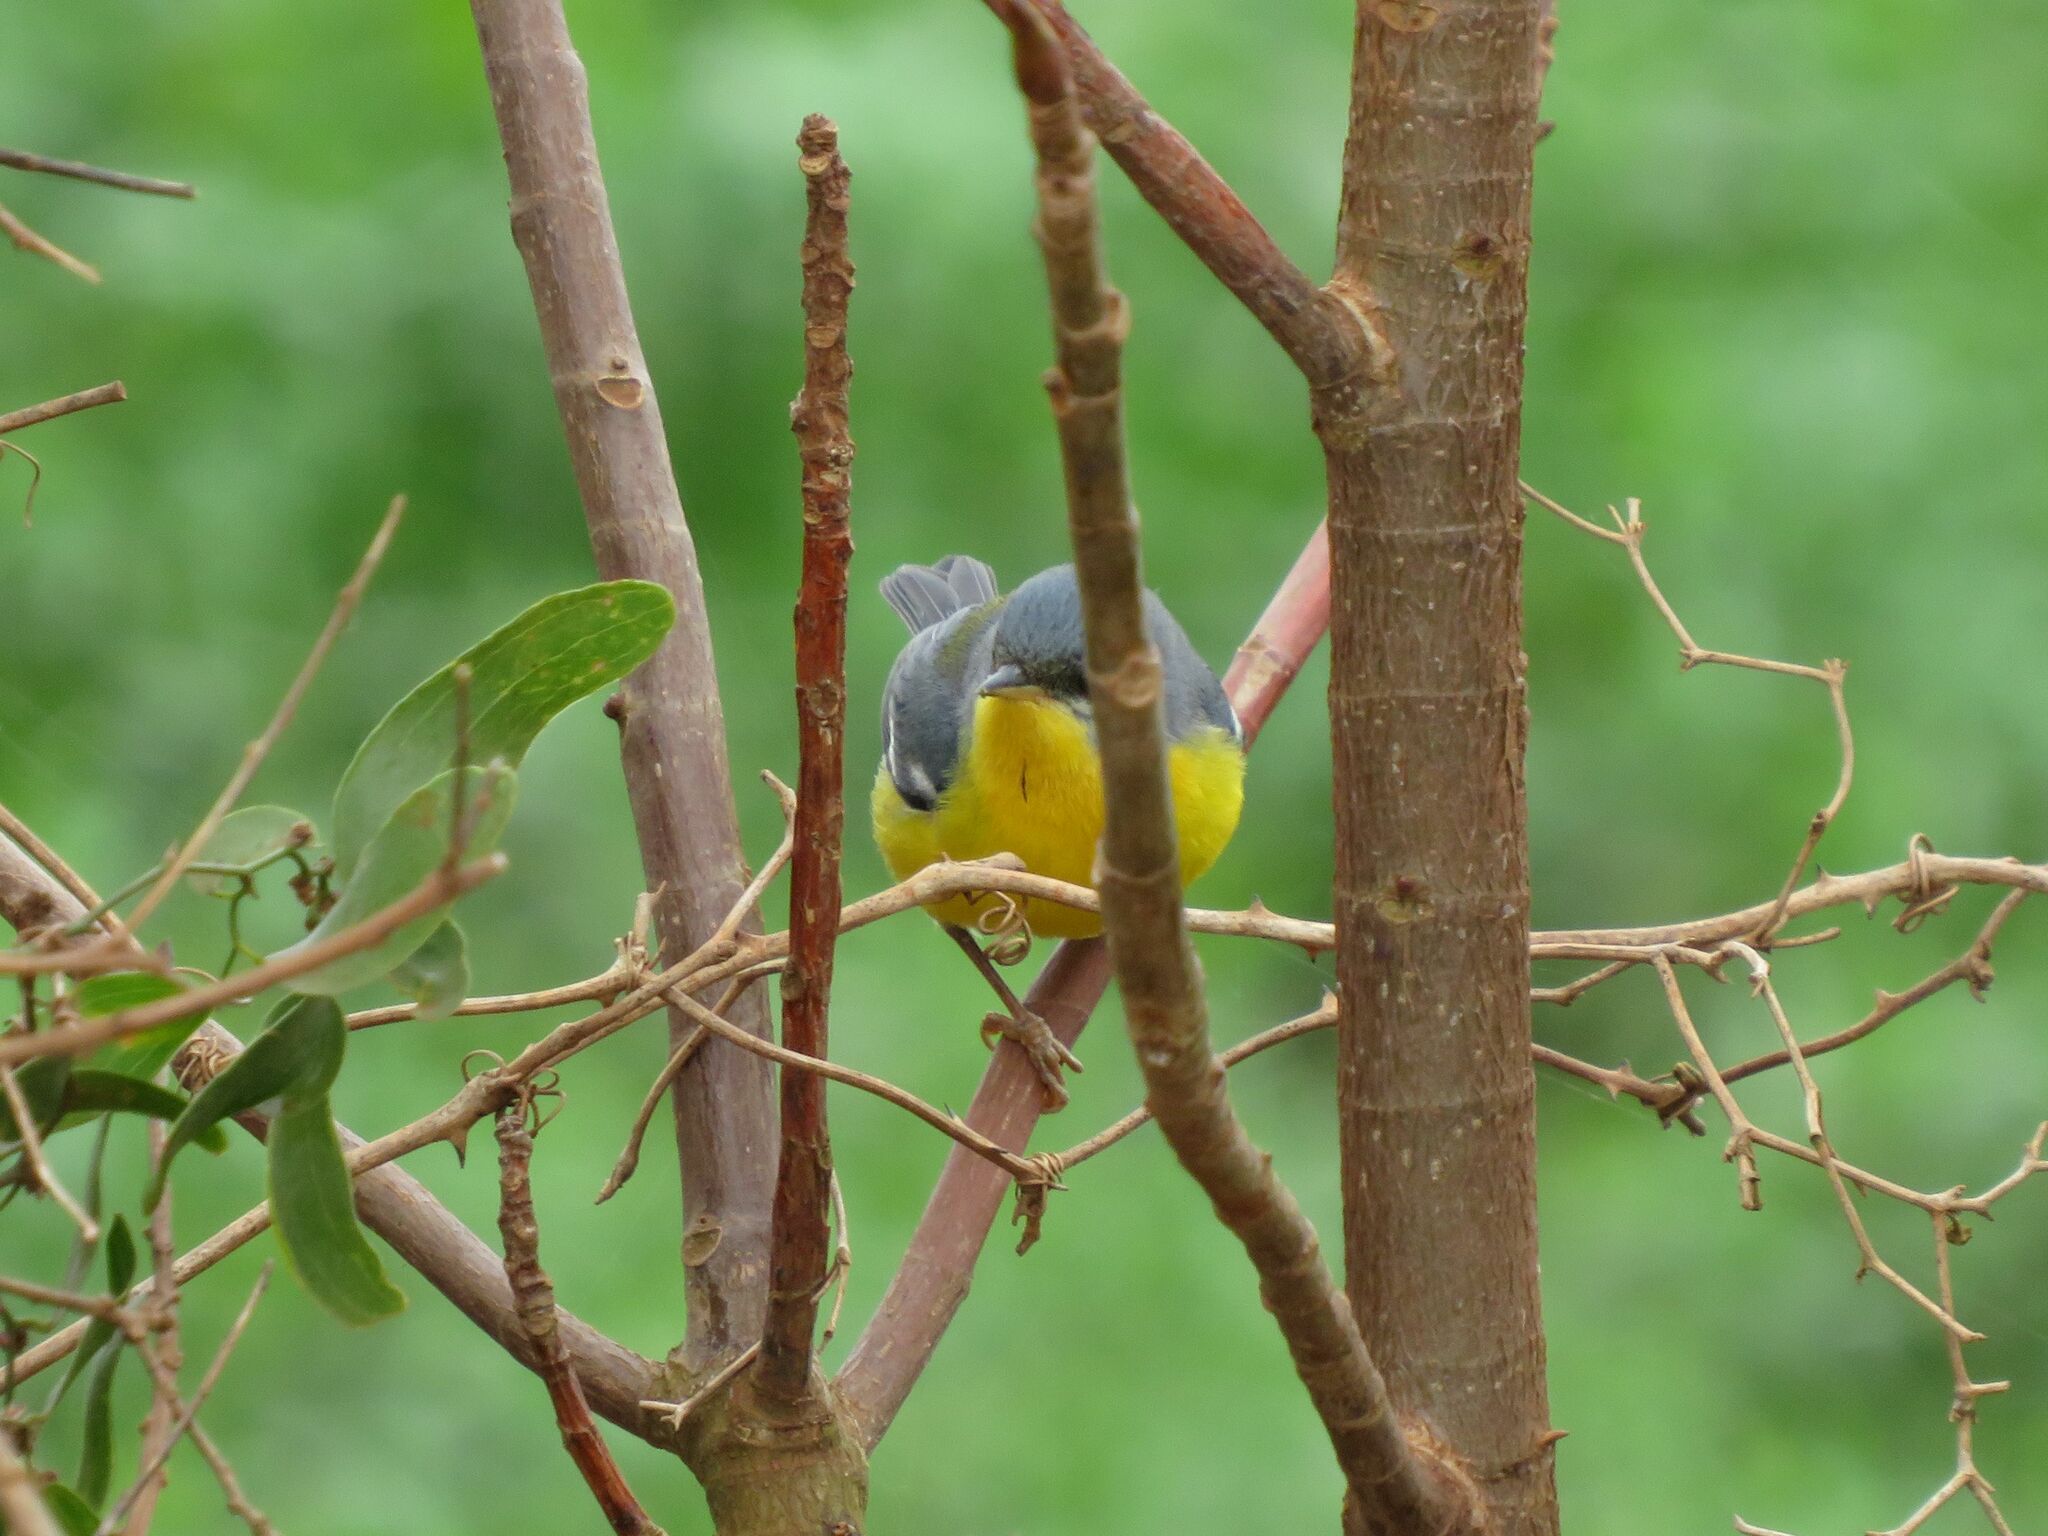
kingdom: Animalia
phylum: Chordata
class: Aves
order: Passeriformes
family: Parulidae
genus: Setophaga
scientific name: Setophaga pitiayumi
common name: Tropical parula
